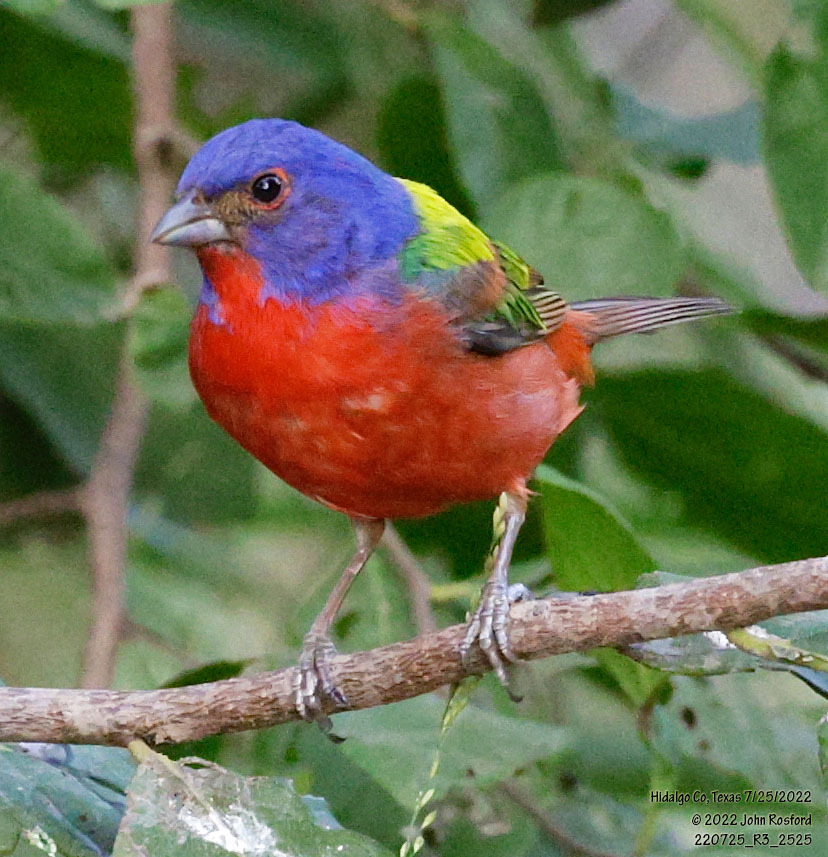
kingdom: Animalia
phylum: Chordata
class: Aves
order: Passeriformes
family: Cardinalidae
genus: Passerina
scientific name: Passerina ciris
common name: Painted bunting
